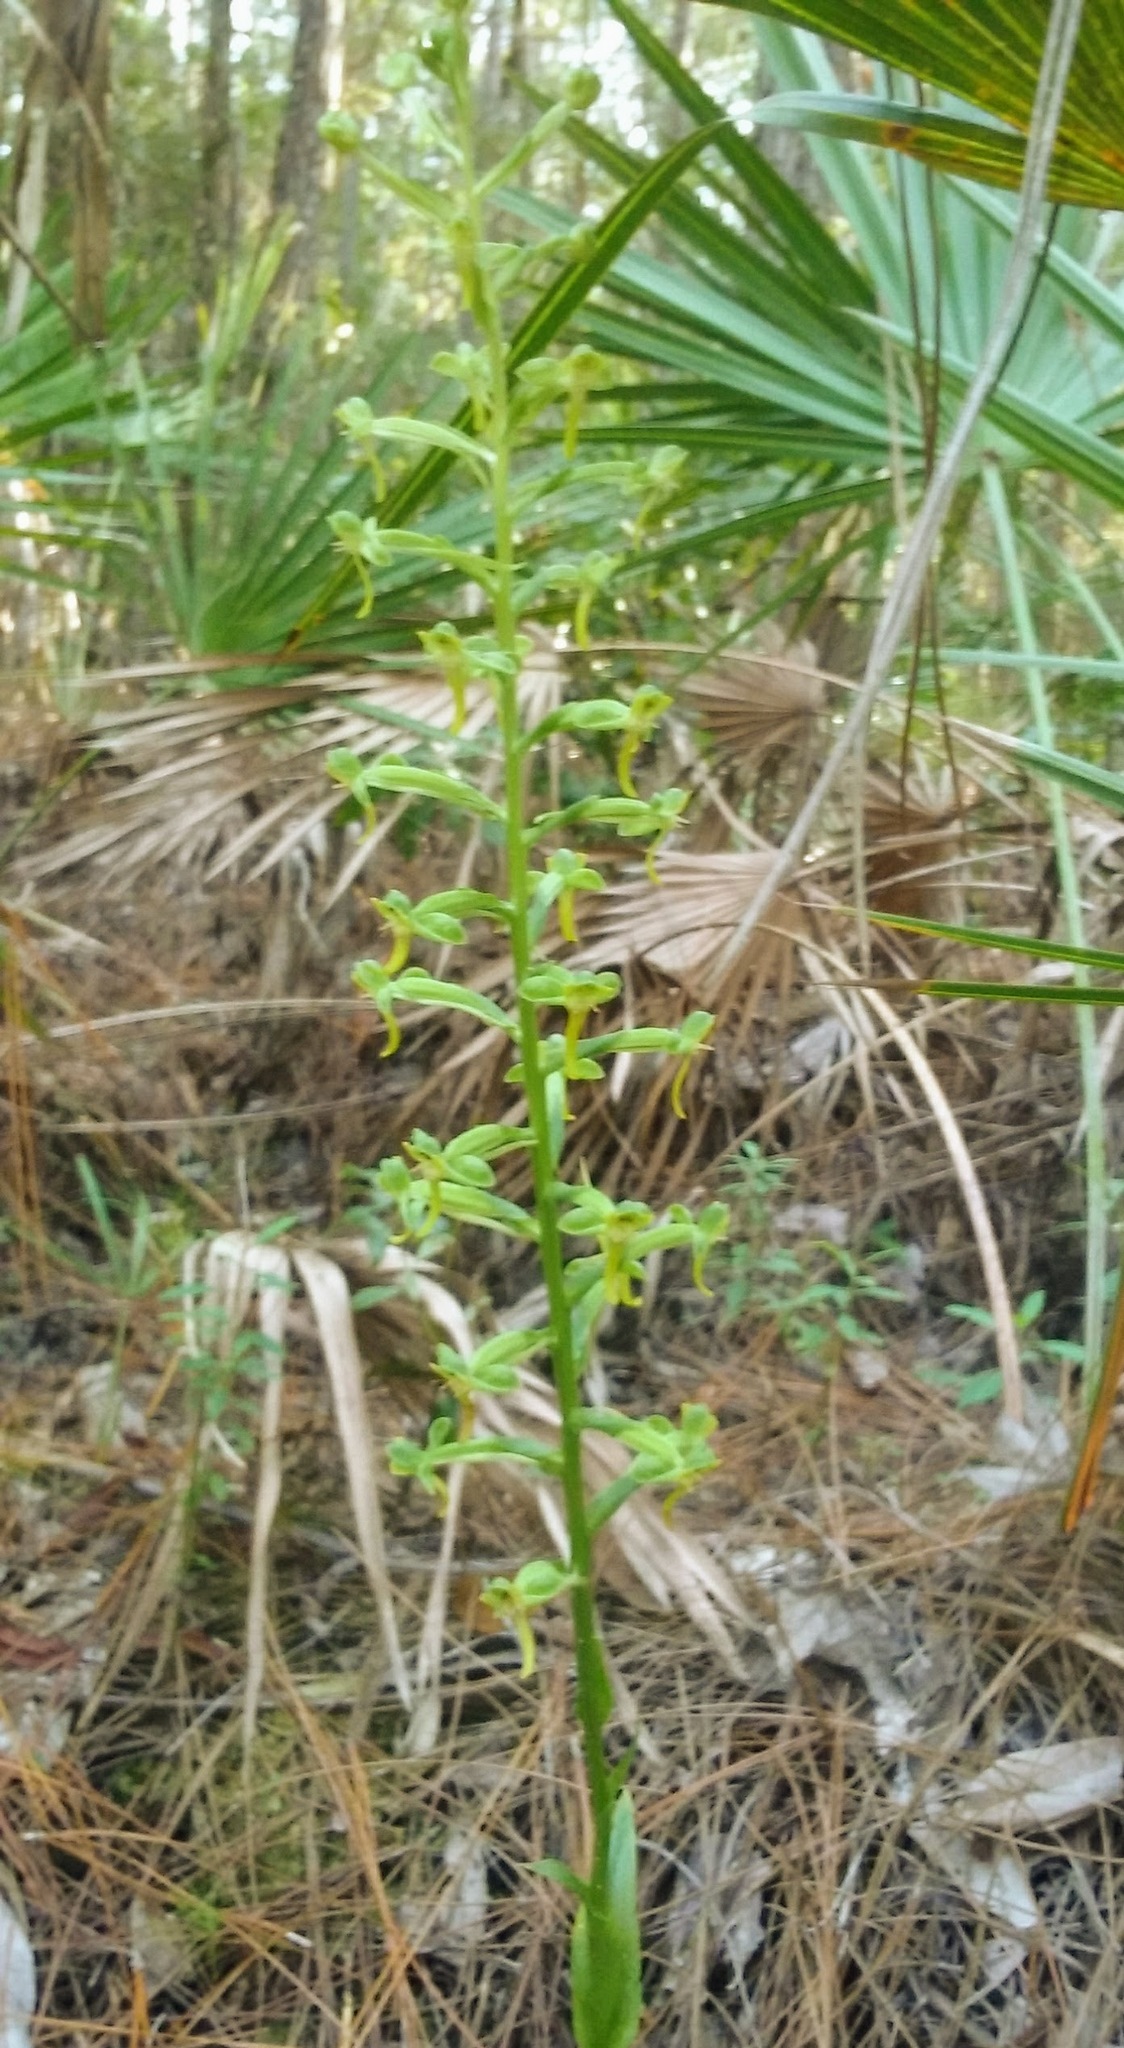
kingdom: Plantae
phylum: Tracheophyta
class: Liliopsida
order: Asparagales
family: Orchidaceae
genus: Habenaria
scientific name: Habenaria floribunda
